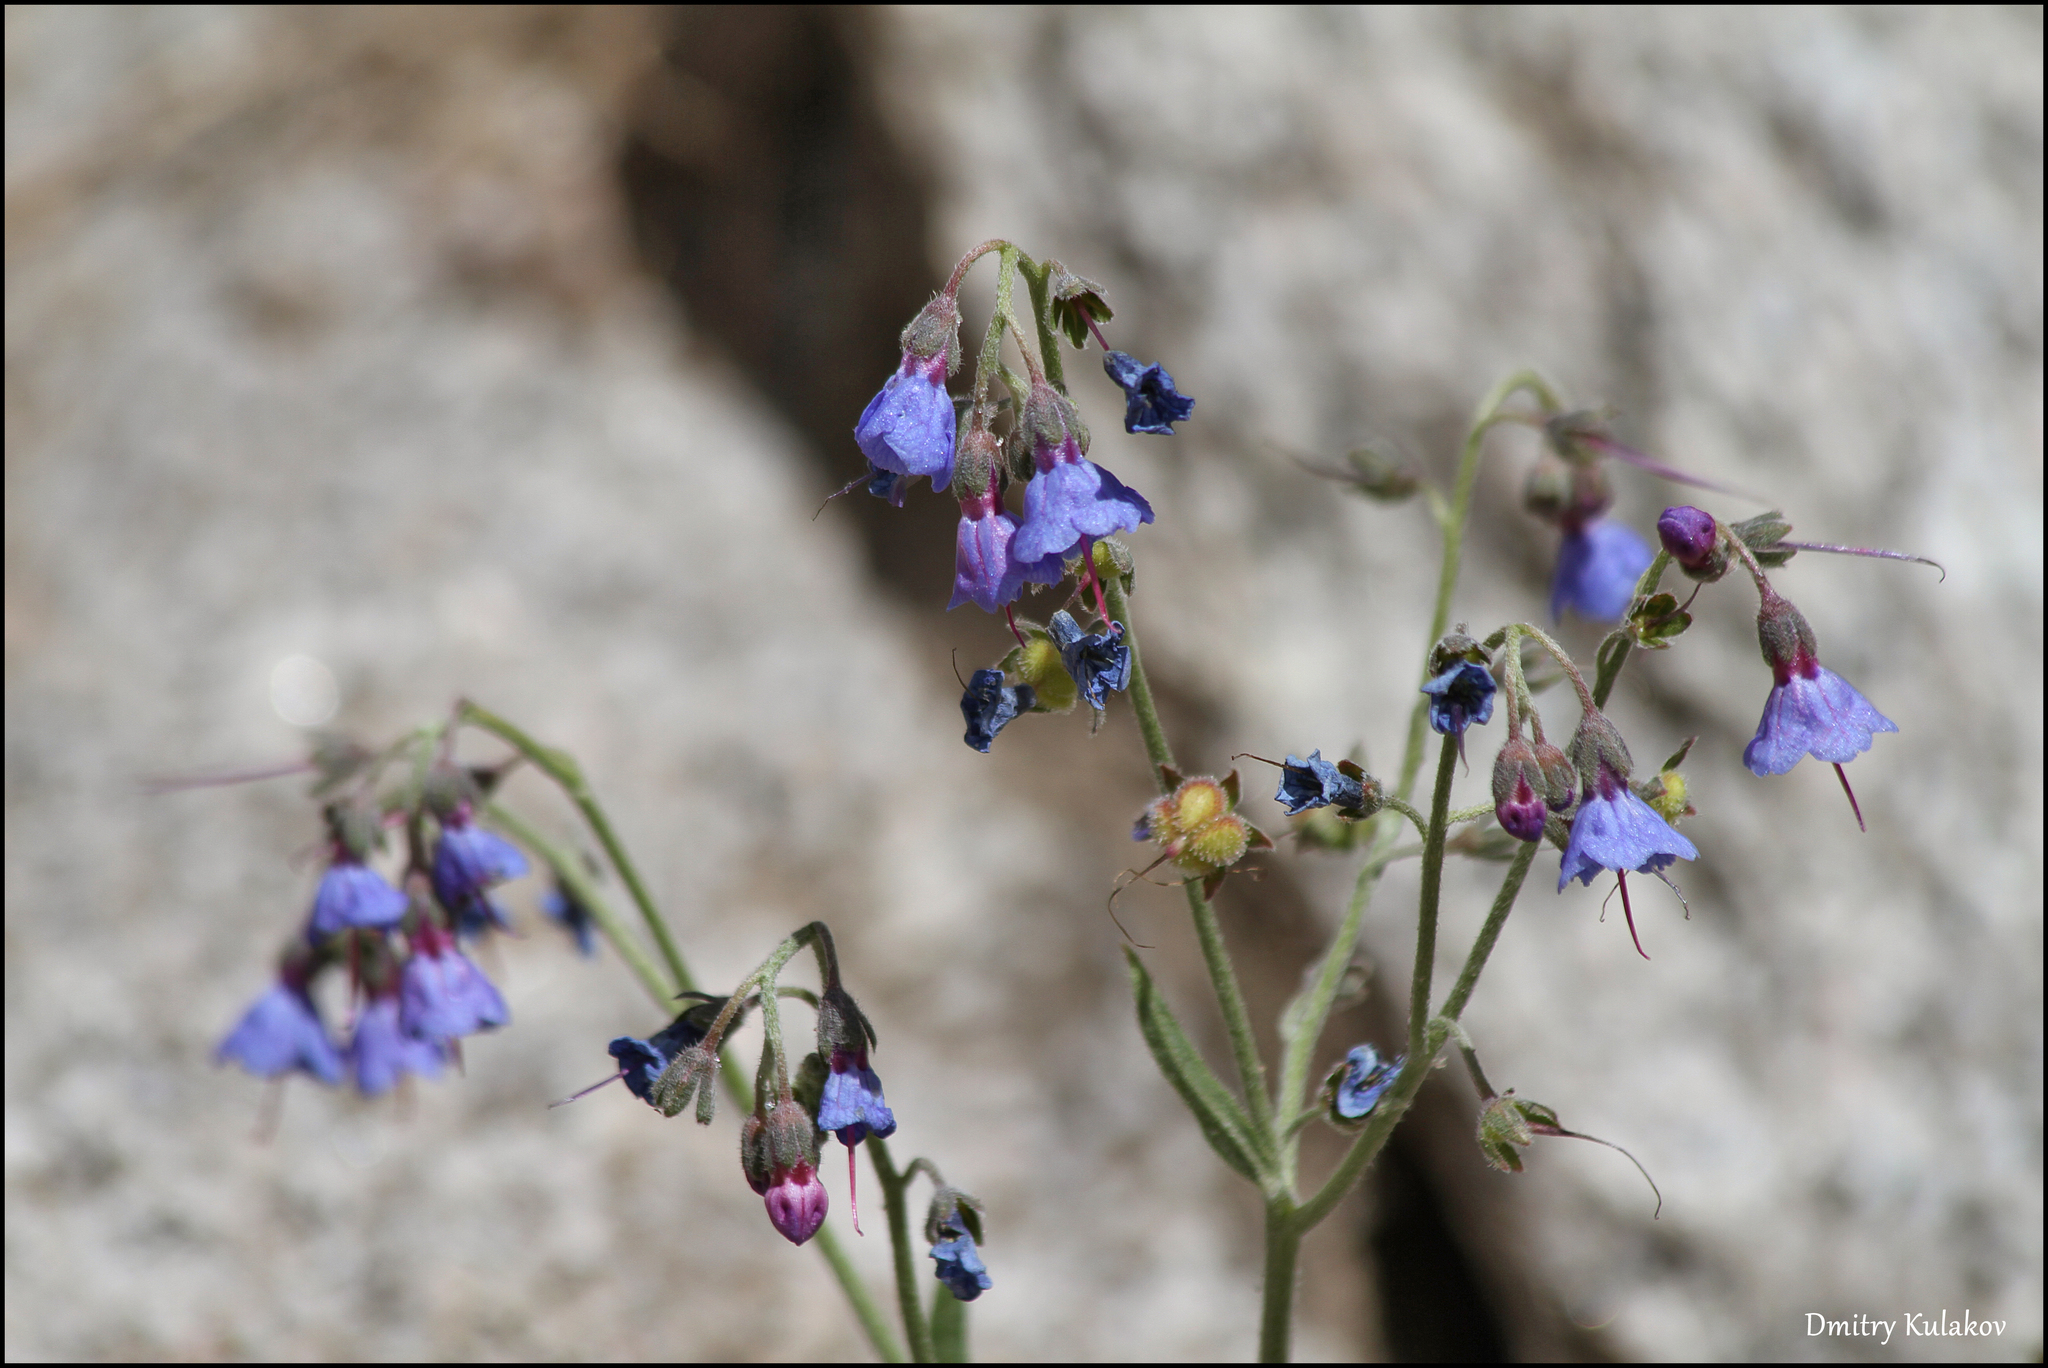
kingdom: Plantae
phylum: Tracheophyta
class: Magnoliopsida
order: Boraginales
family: Boraginaceae
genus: Lindelofia
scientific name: Lindelofia anchusoides
